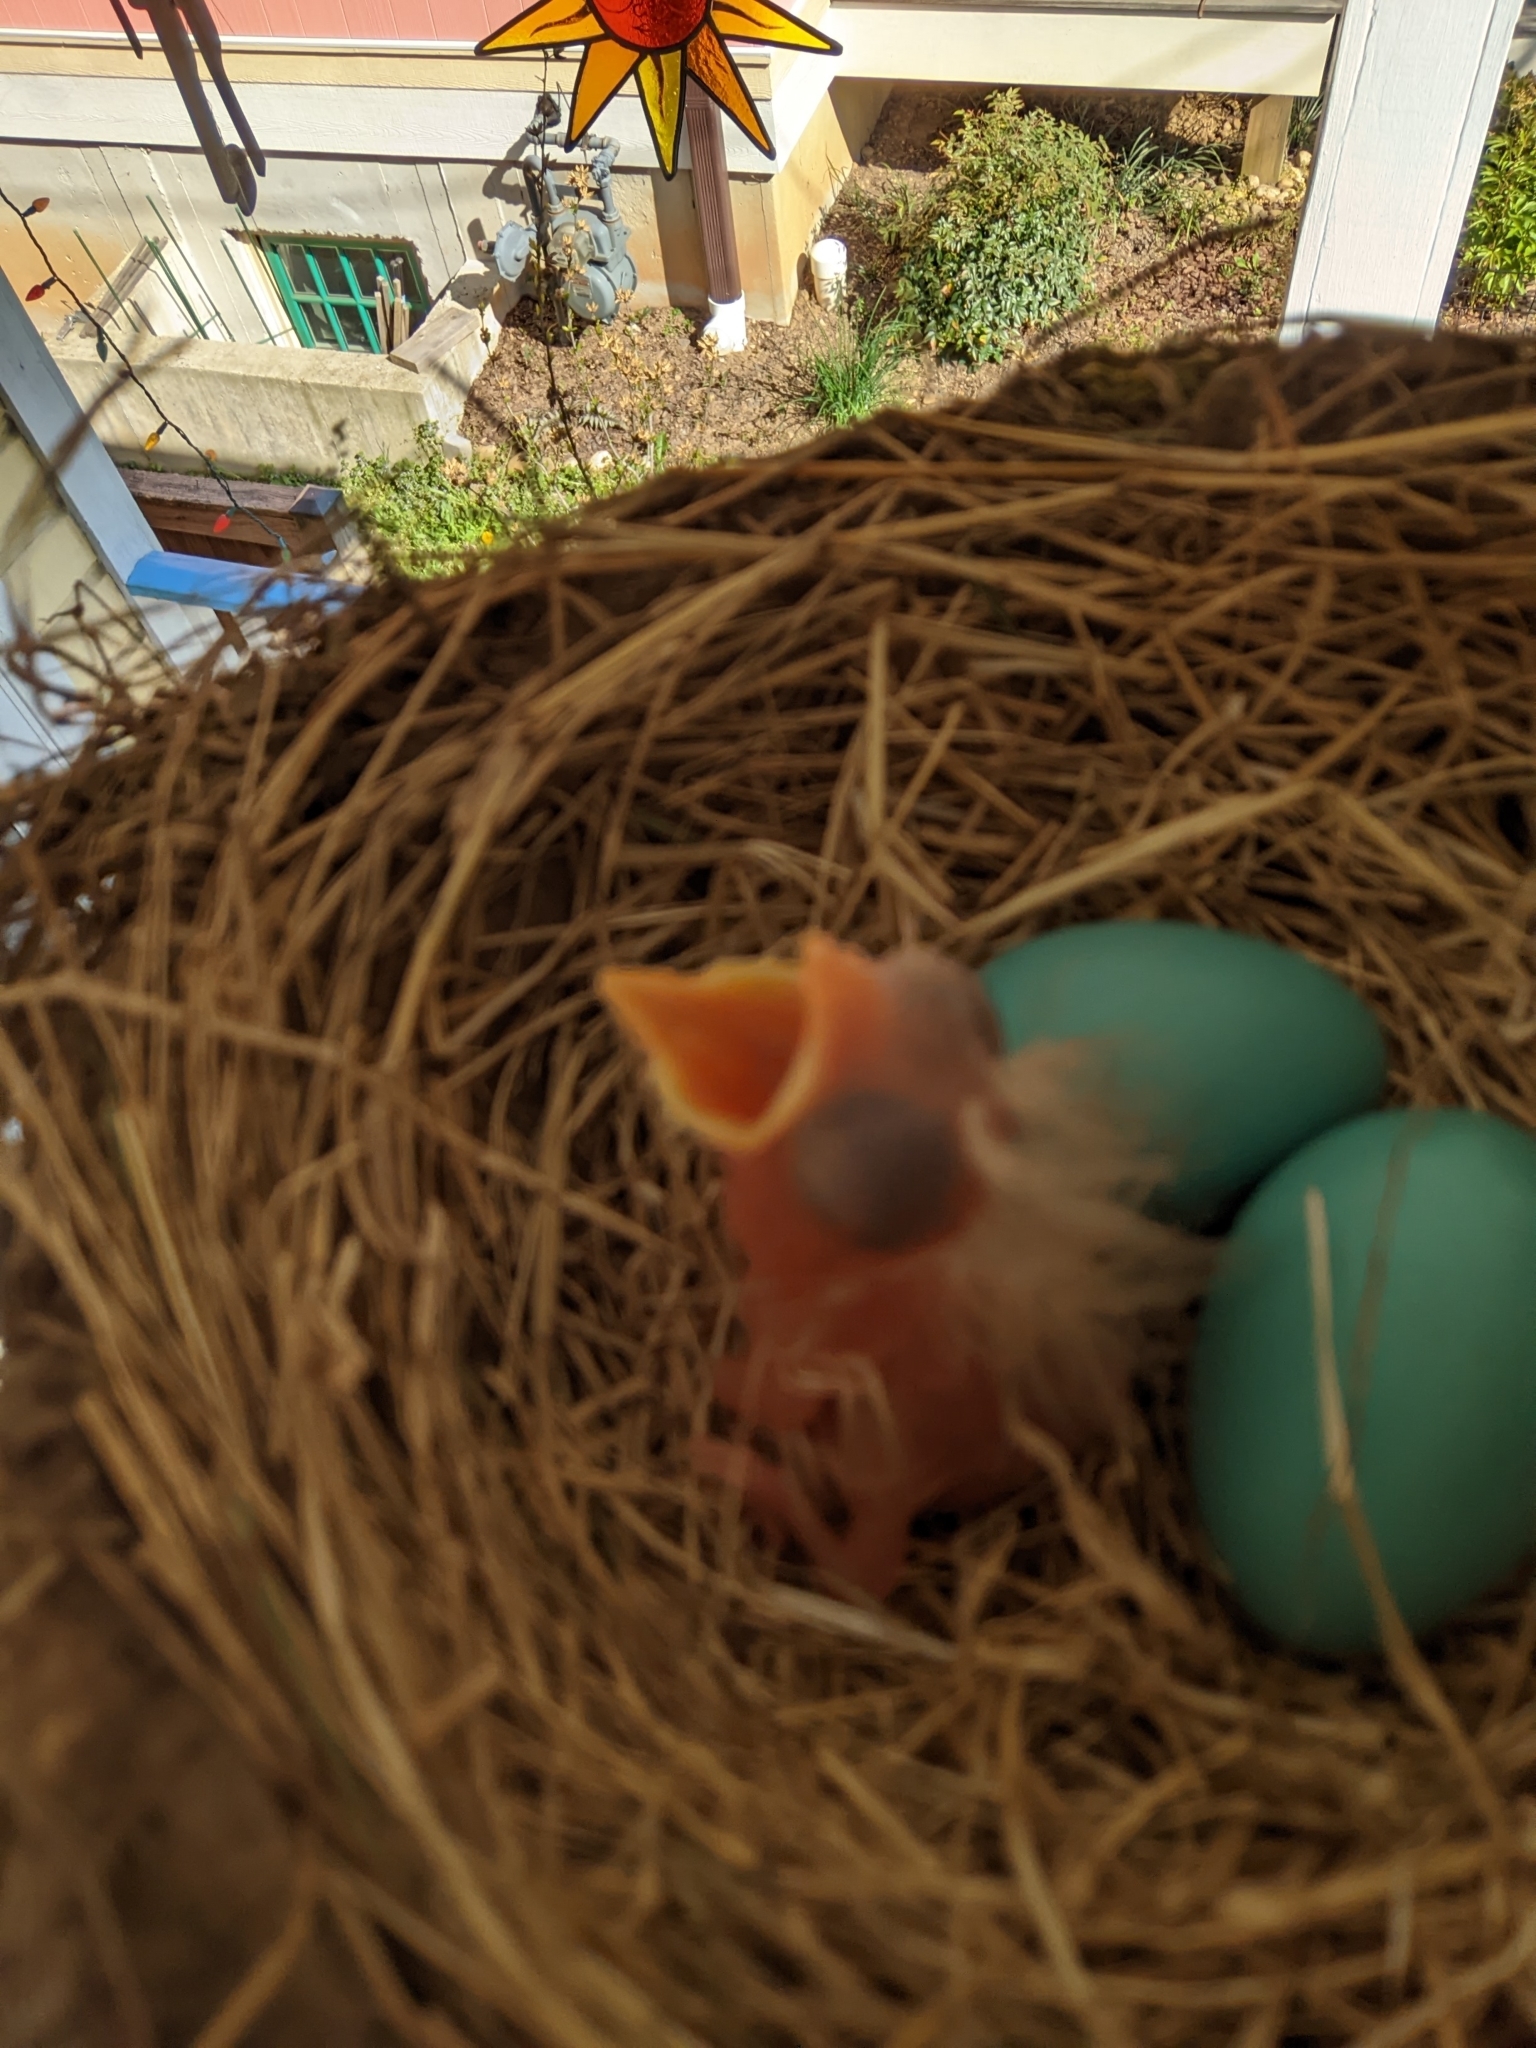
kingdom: Animalia
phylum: Chordata
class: Aves
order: Passeriformes
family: Turdidae
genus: Turdus
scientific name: Turdus migratorius
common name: American robin
